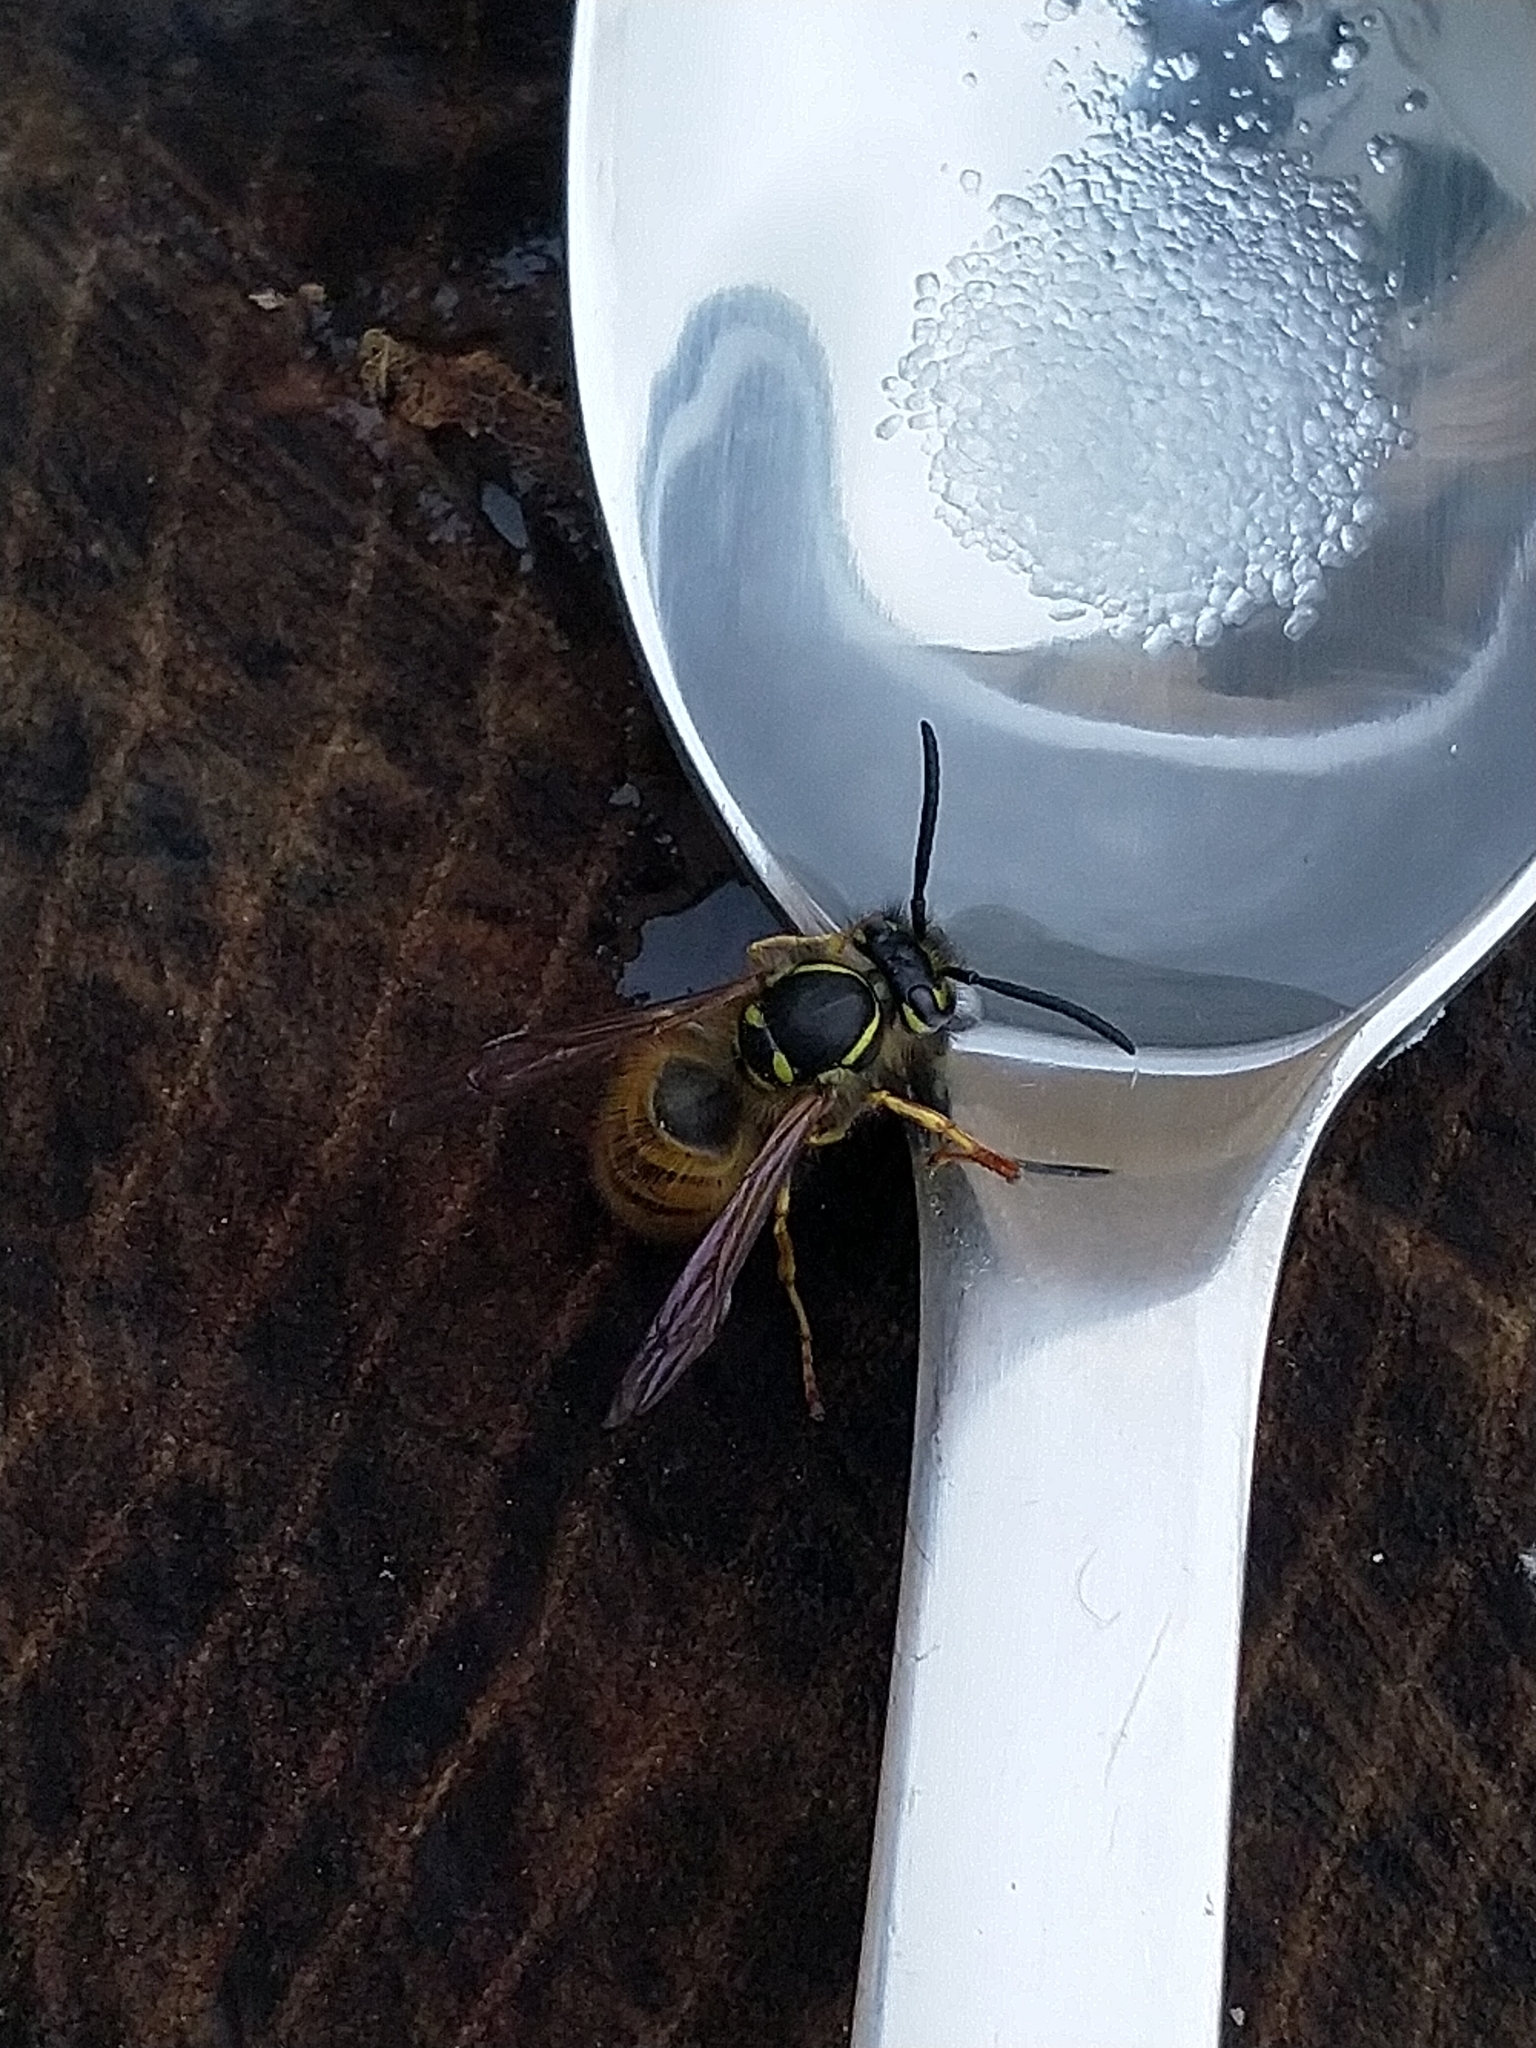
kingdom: Animalia
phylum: Arthropoda
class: Insecta
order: Hymenoptera
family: Vespidae
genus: Vespula
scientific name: Vespula vulgaris
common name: Common wasp
